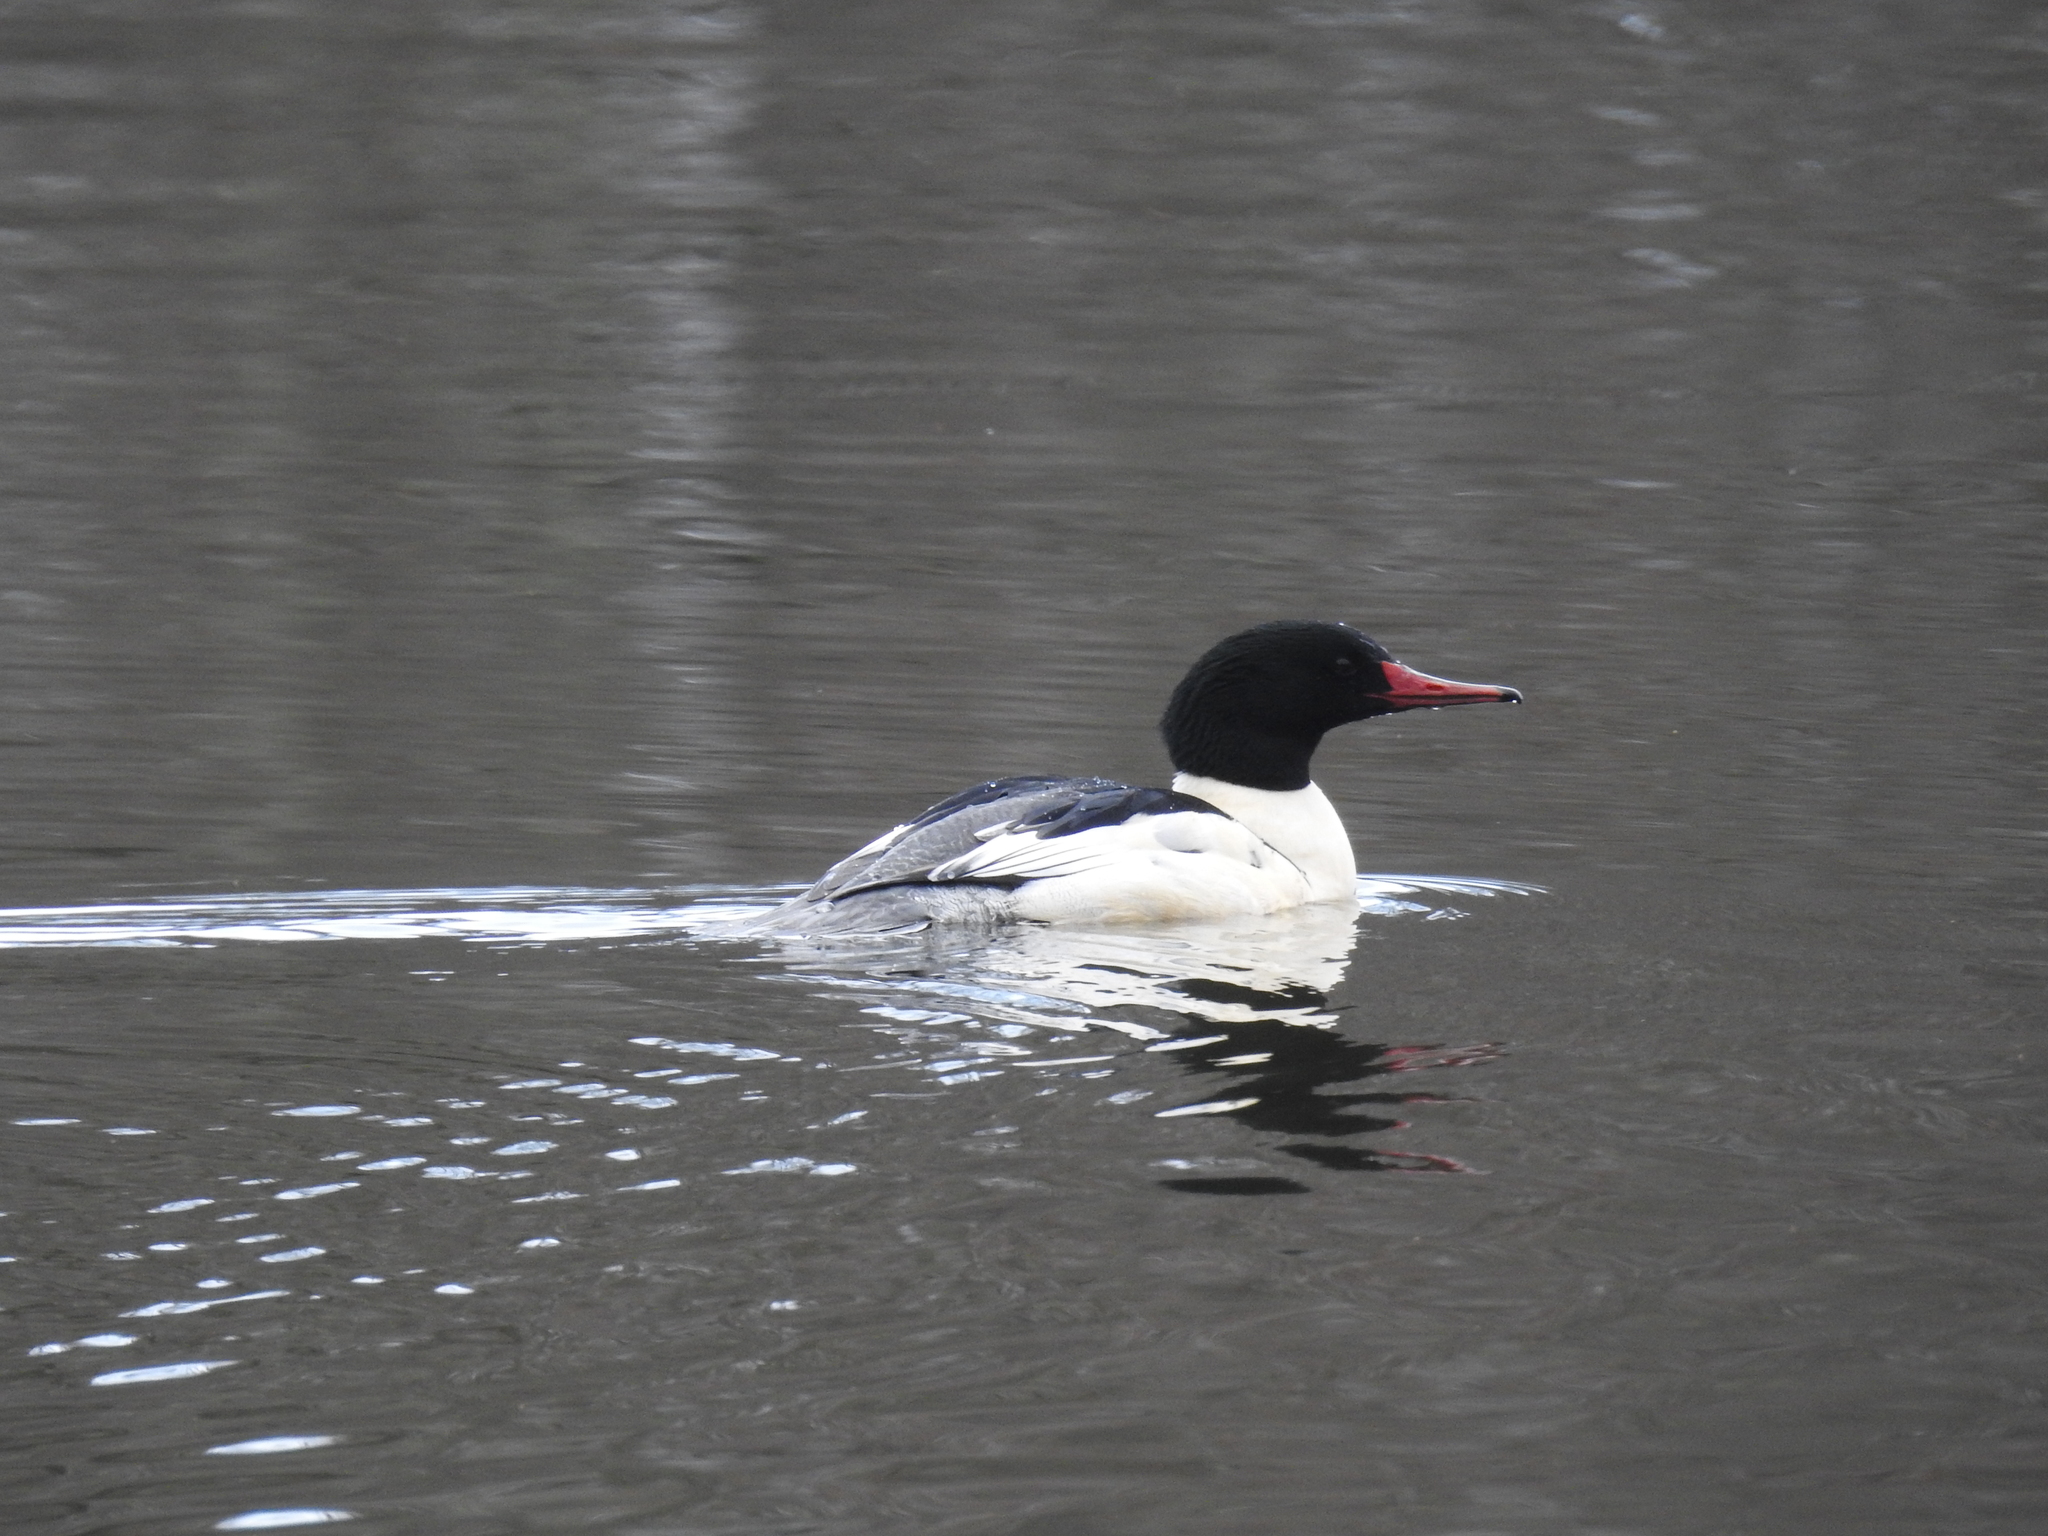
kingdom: Animalia
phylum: Chordata
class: Aves
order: Anseriformes
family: Anatidae
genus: Mergus
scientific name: Mergus merganser
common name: Common merganser
